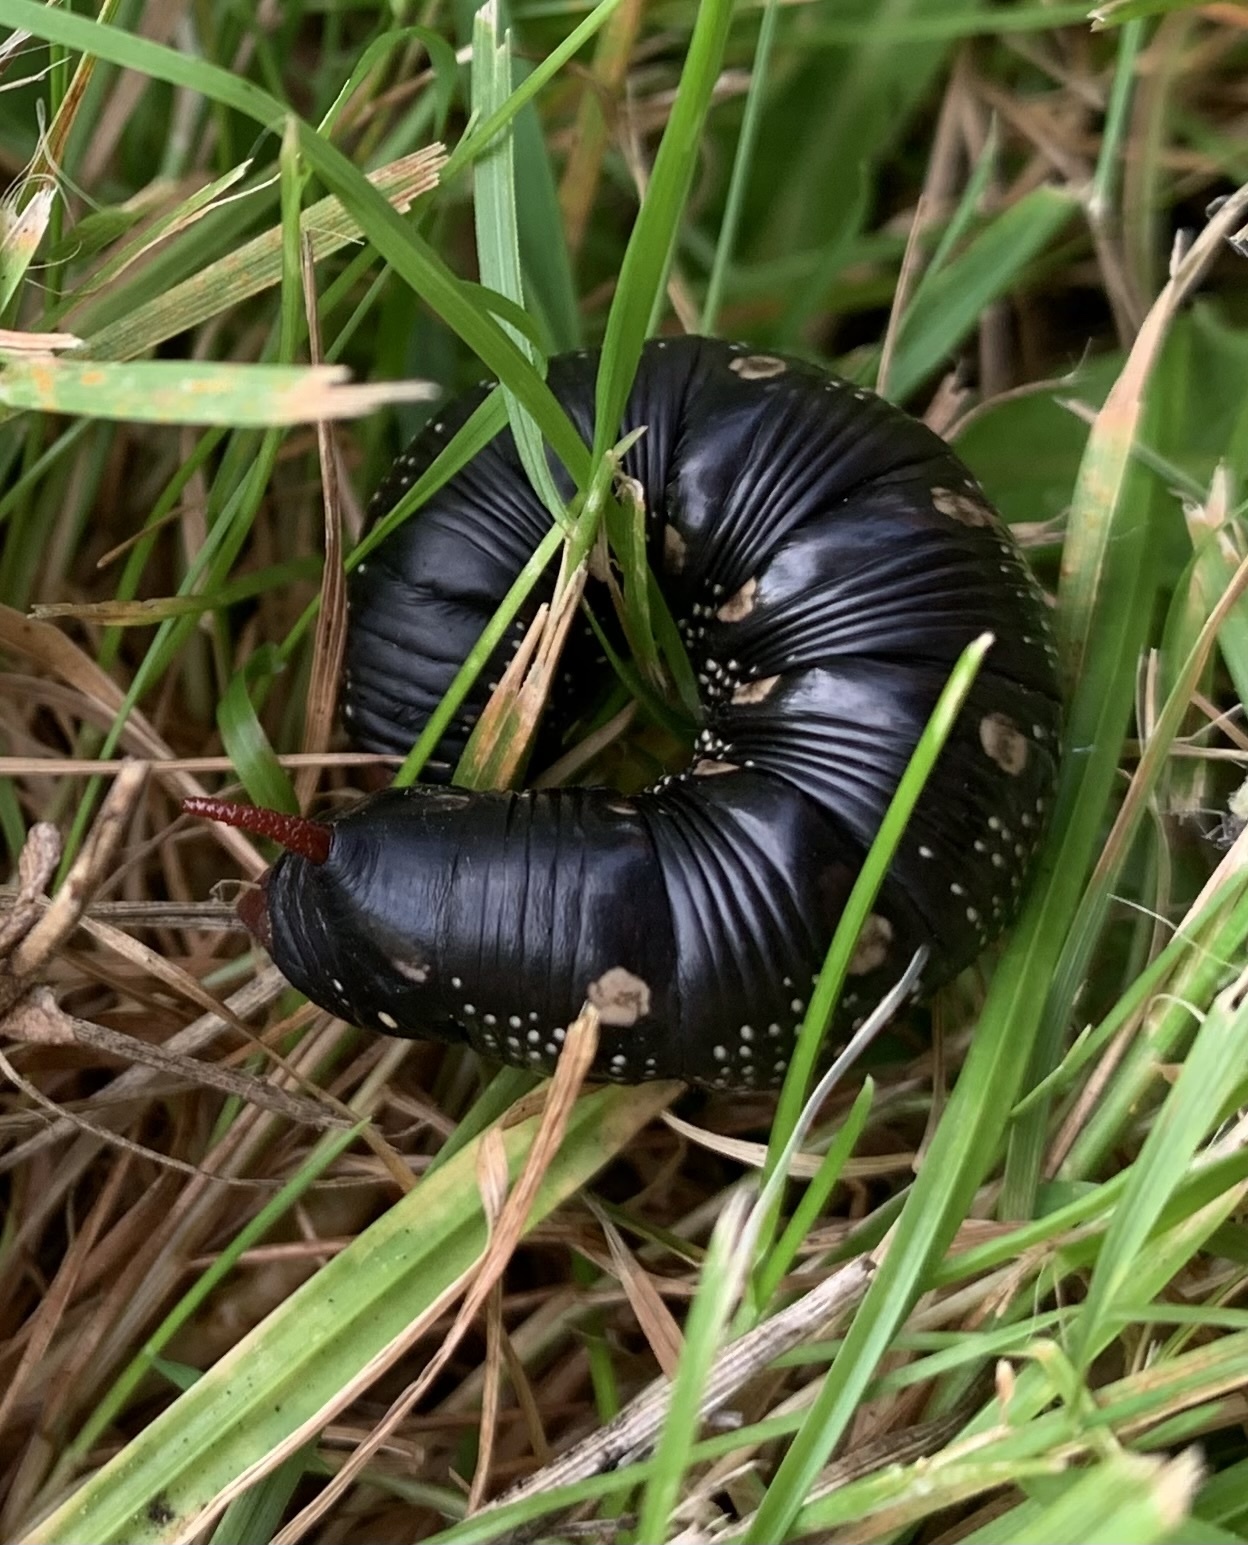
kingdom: Animalia
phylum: Arthropoda
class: Insecta
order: Lepidoptera
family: Sphingidae
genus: Hyles
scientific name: Hyles gallii
